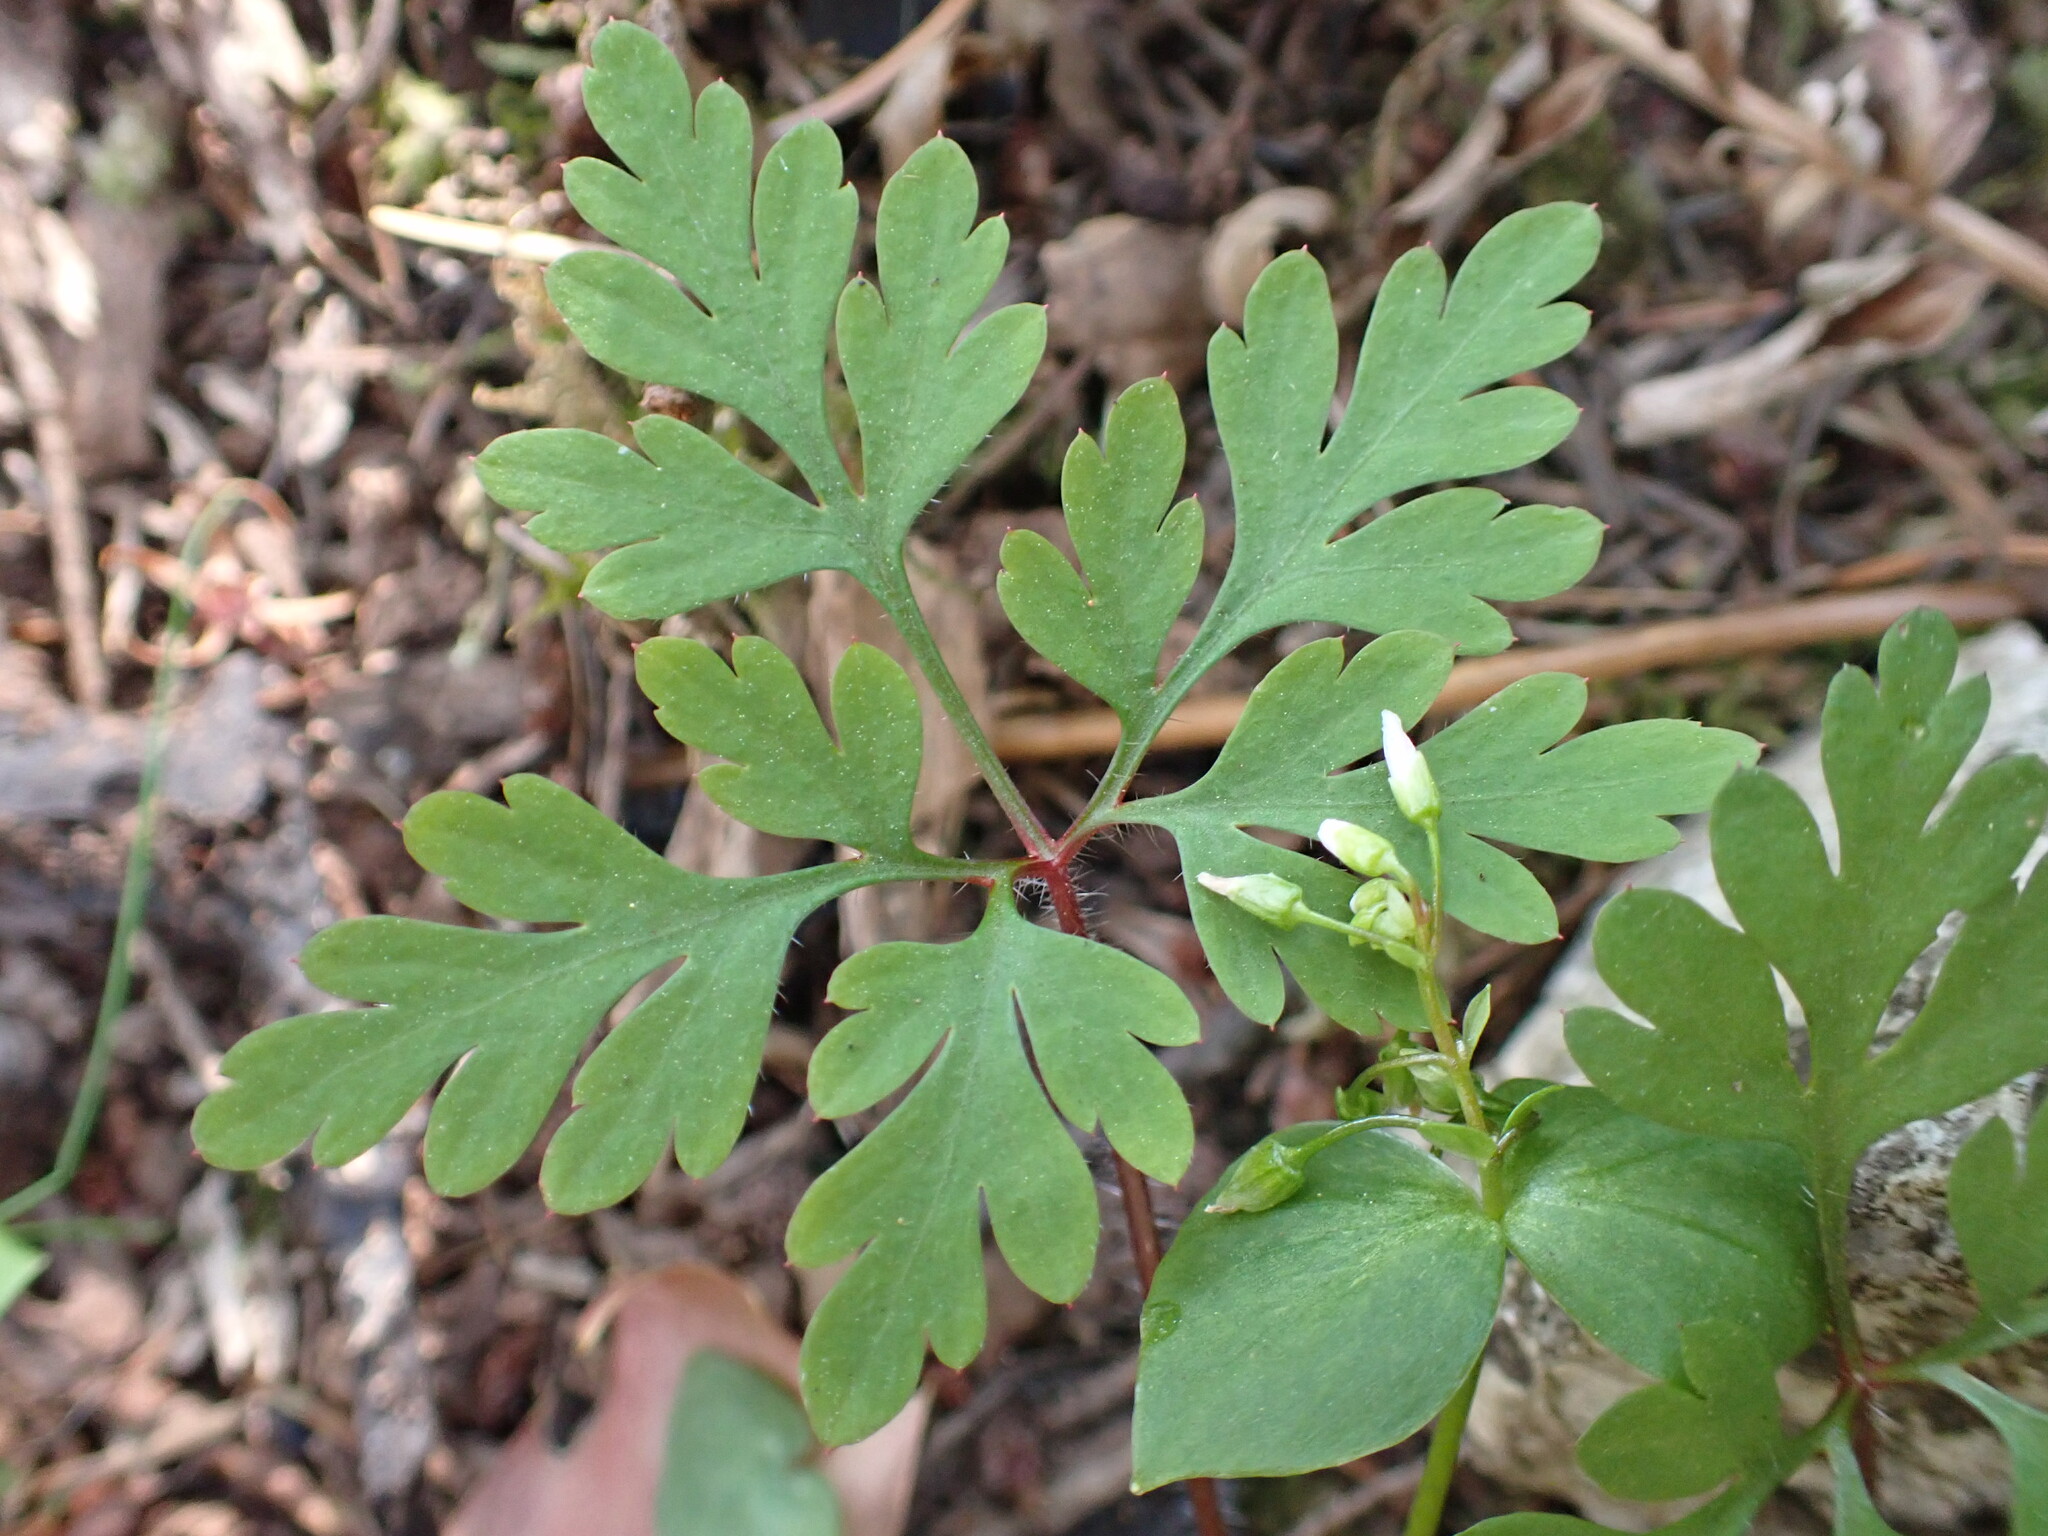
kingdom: Plantae
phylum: Tracheophyta
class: Magnoliopsida
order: Geraniales
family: Geraniaceae
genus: Geranium
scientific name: Geranium robertianum
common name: Herb-robert
